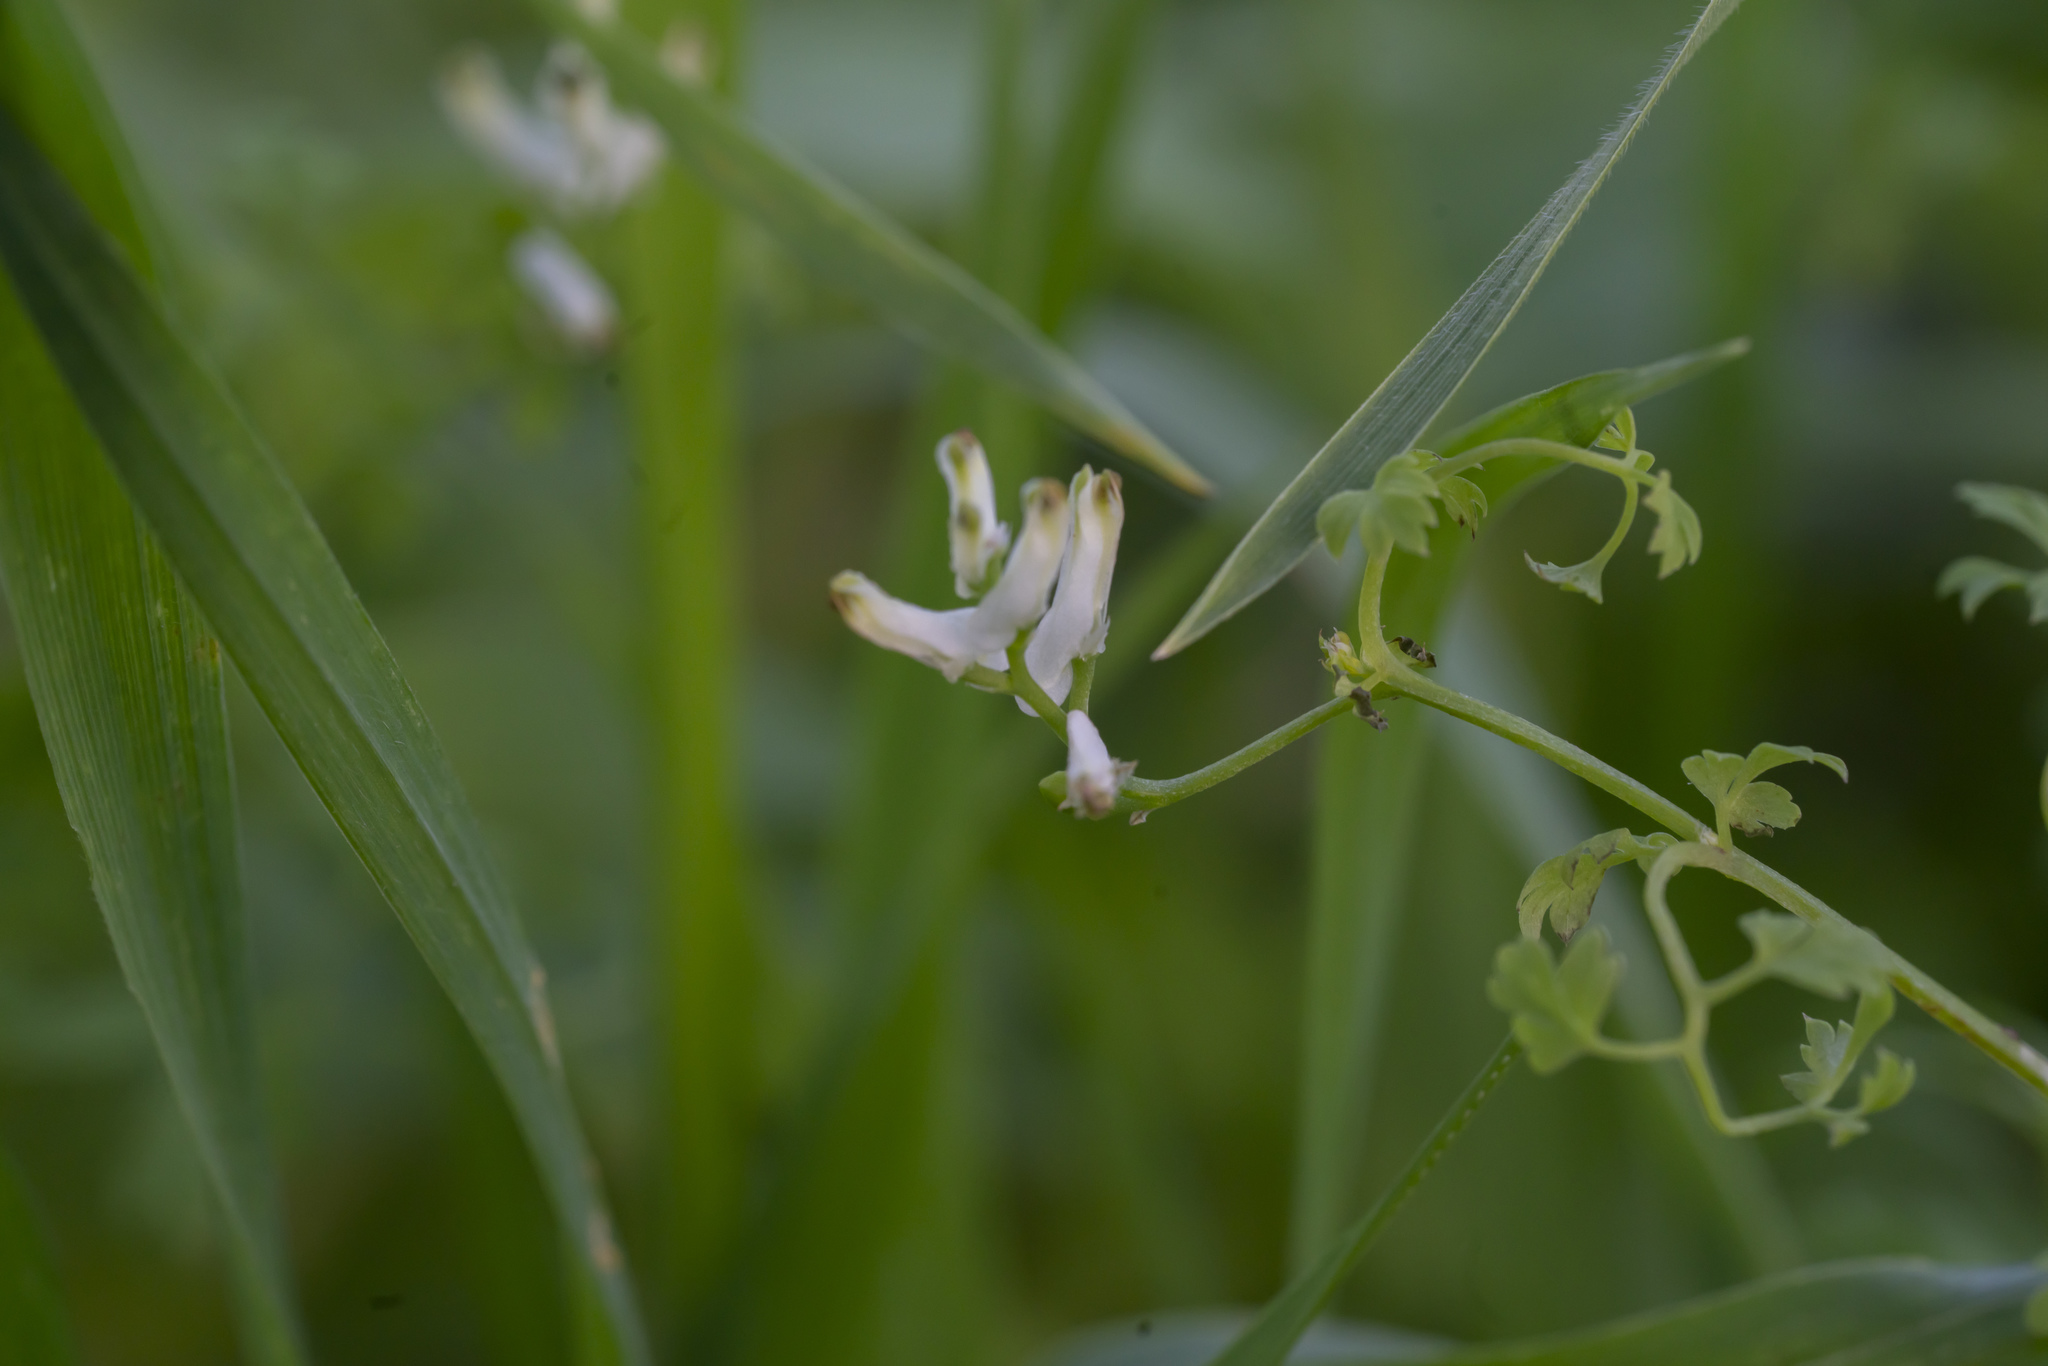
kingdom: Plantae
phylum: Tracheophyta
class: Magnoliopsida
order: Ranunculales
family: Papaveraceae
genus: Fumaria
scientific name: Fumaria macrocarpa
